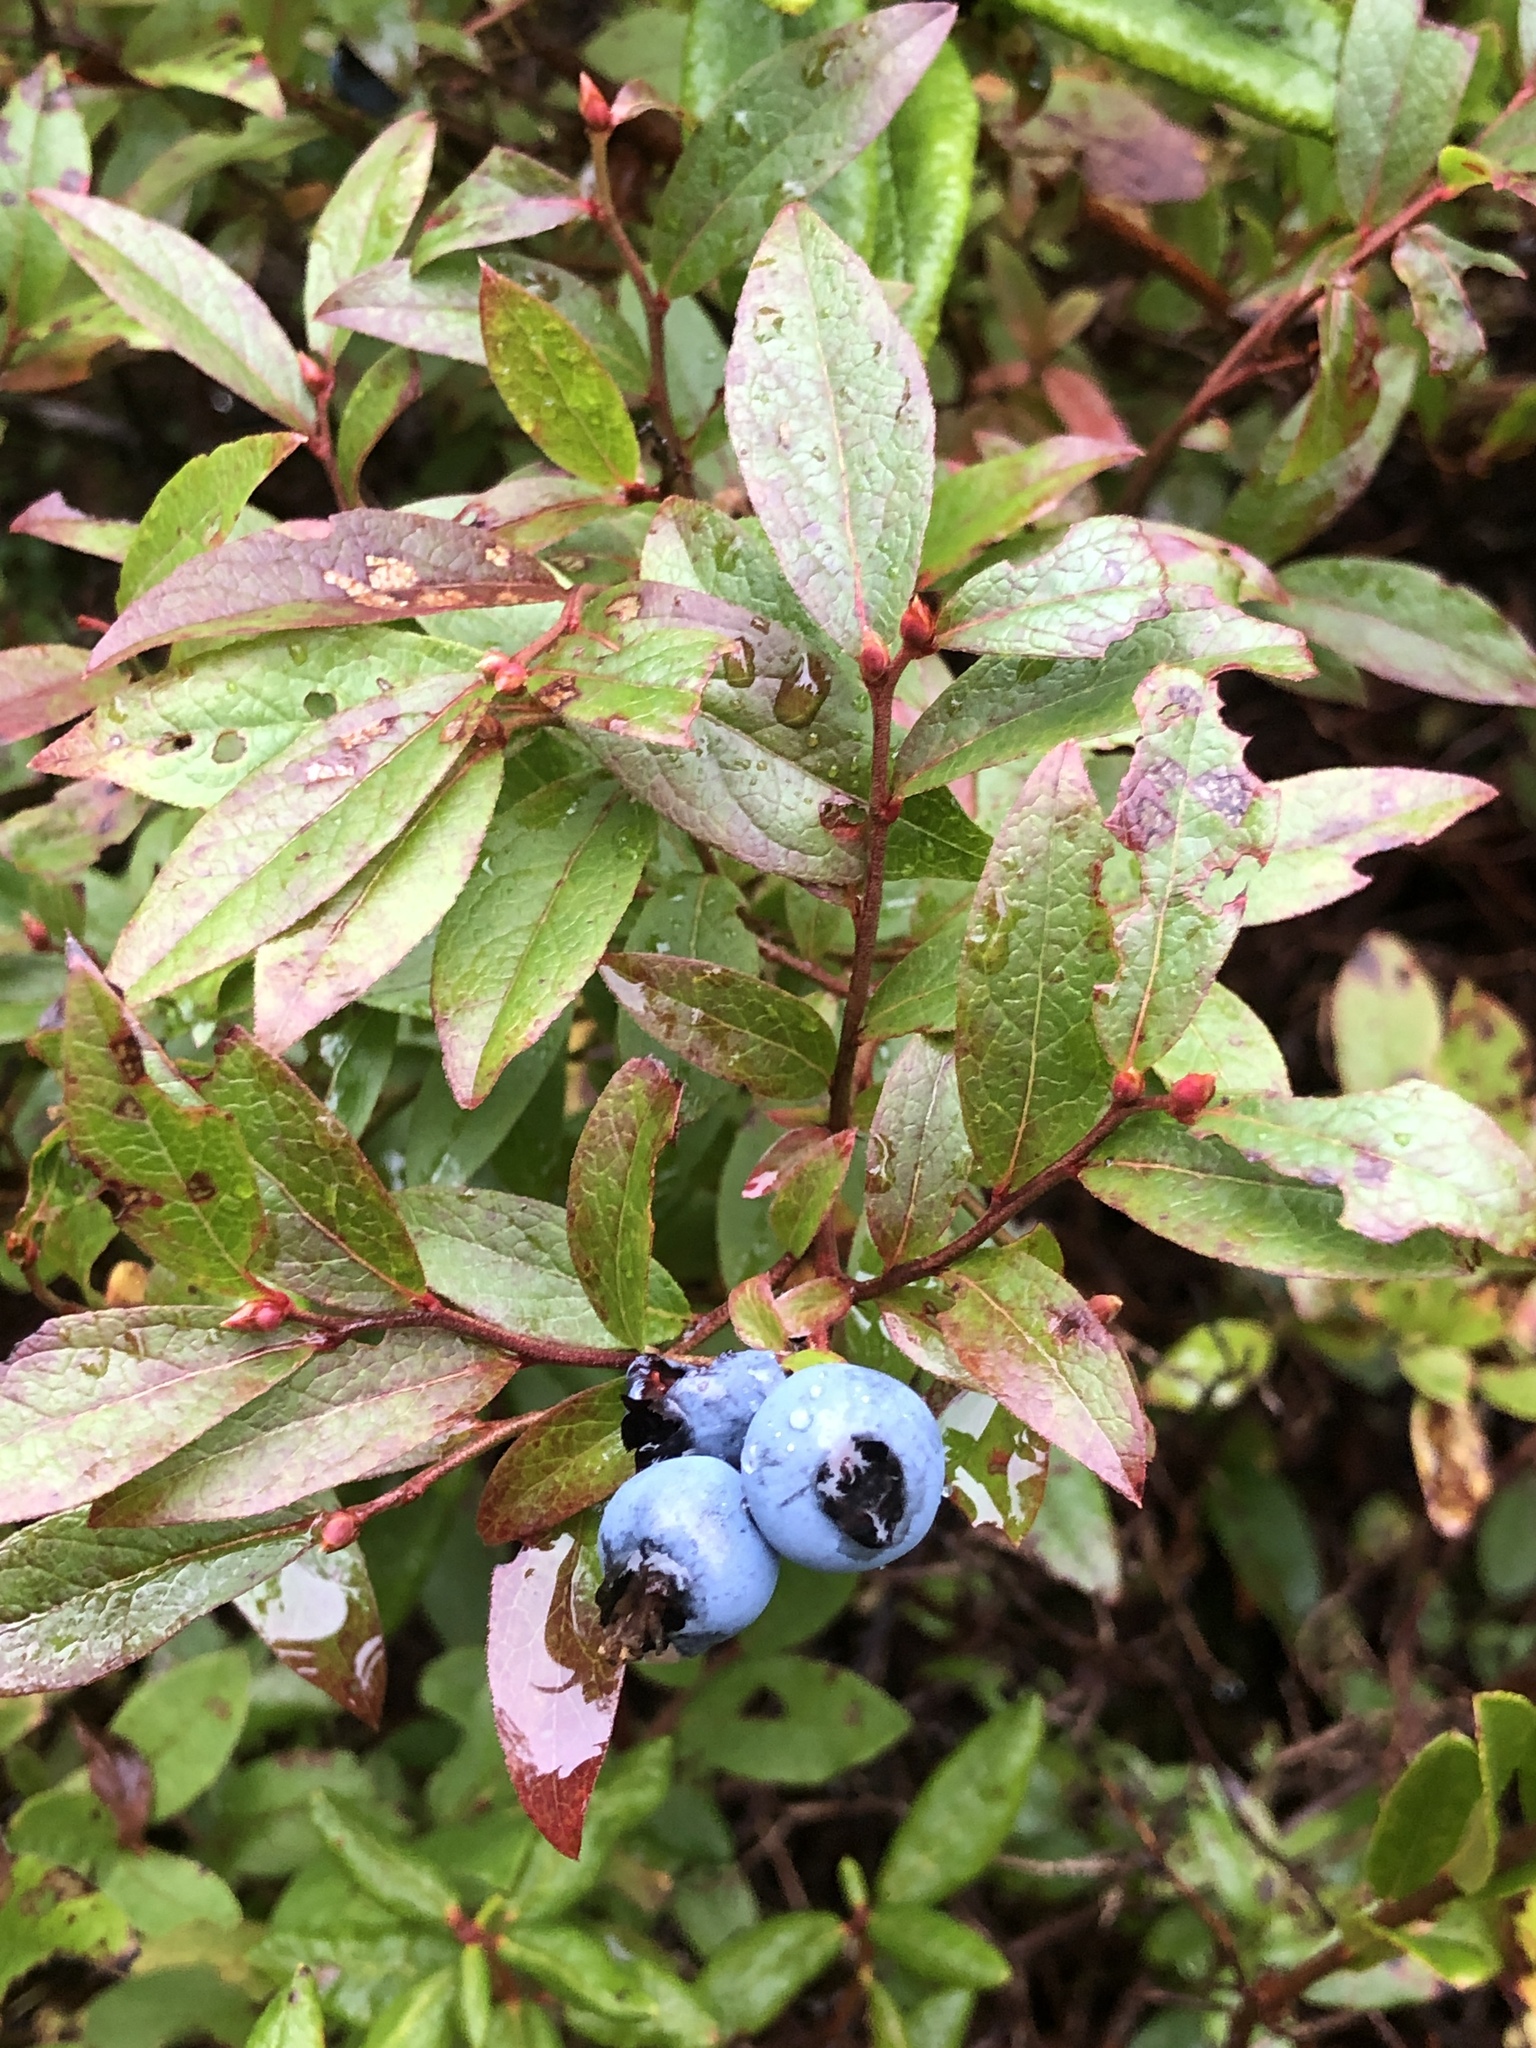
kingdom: Plantae
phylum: Tracheophyta
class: Magnoliopsida
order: Ericales
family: Ericaceae
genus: Vaccinium
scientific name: Vaccinium angustifolium
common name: Early lowbush blueberry
